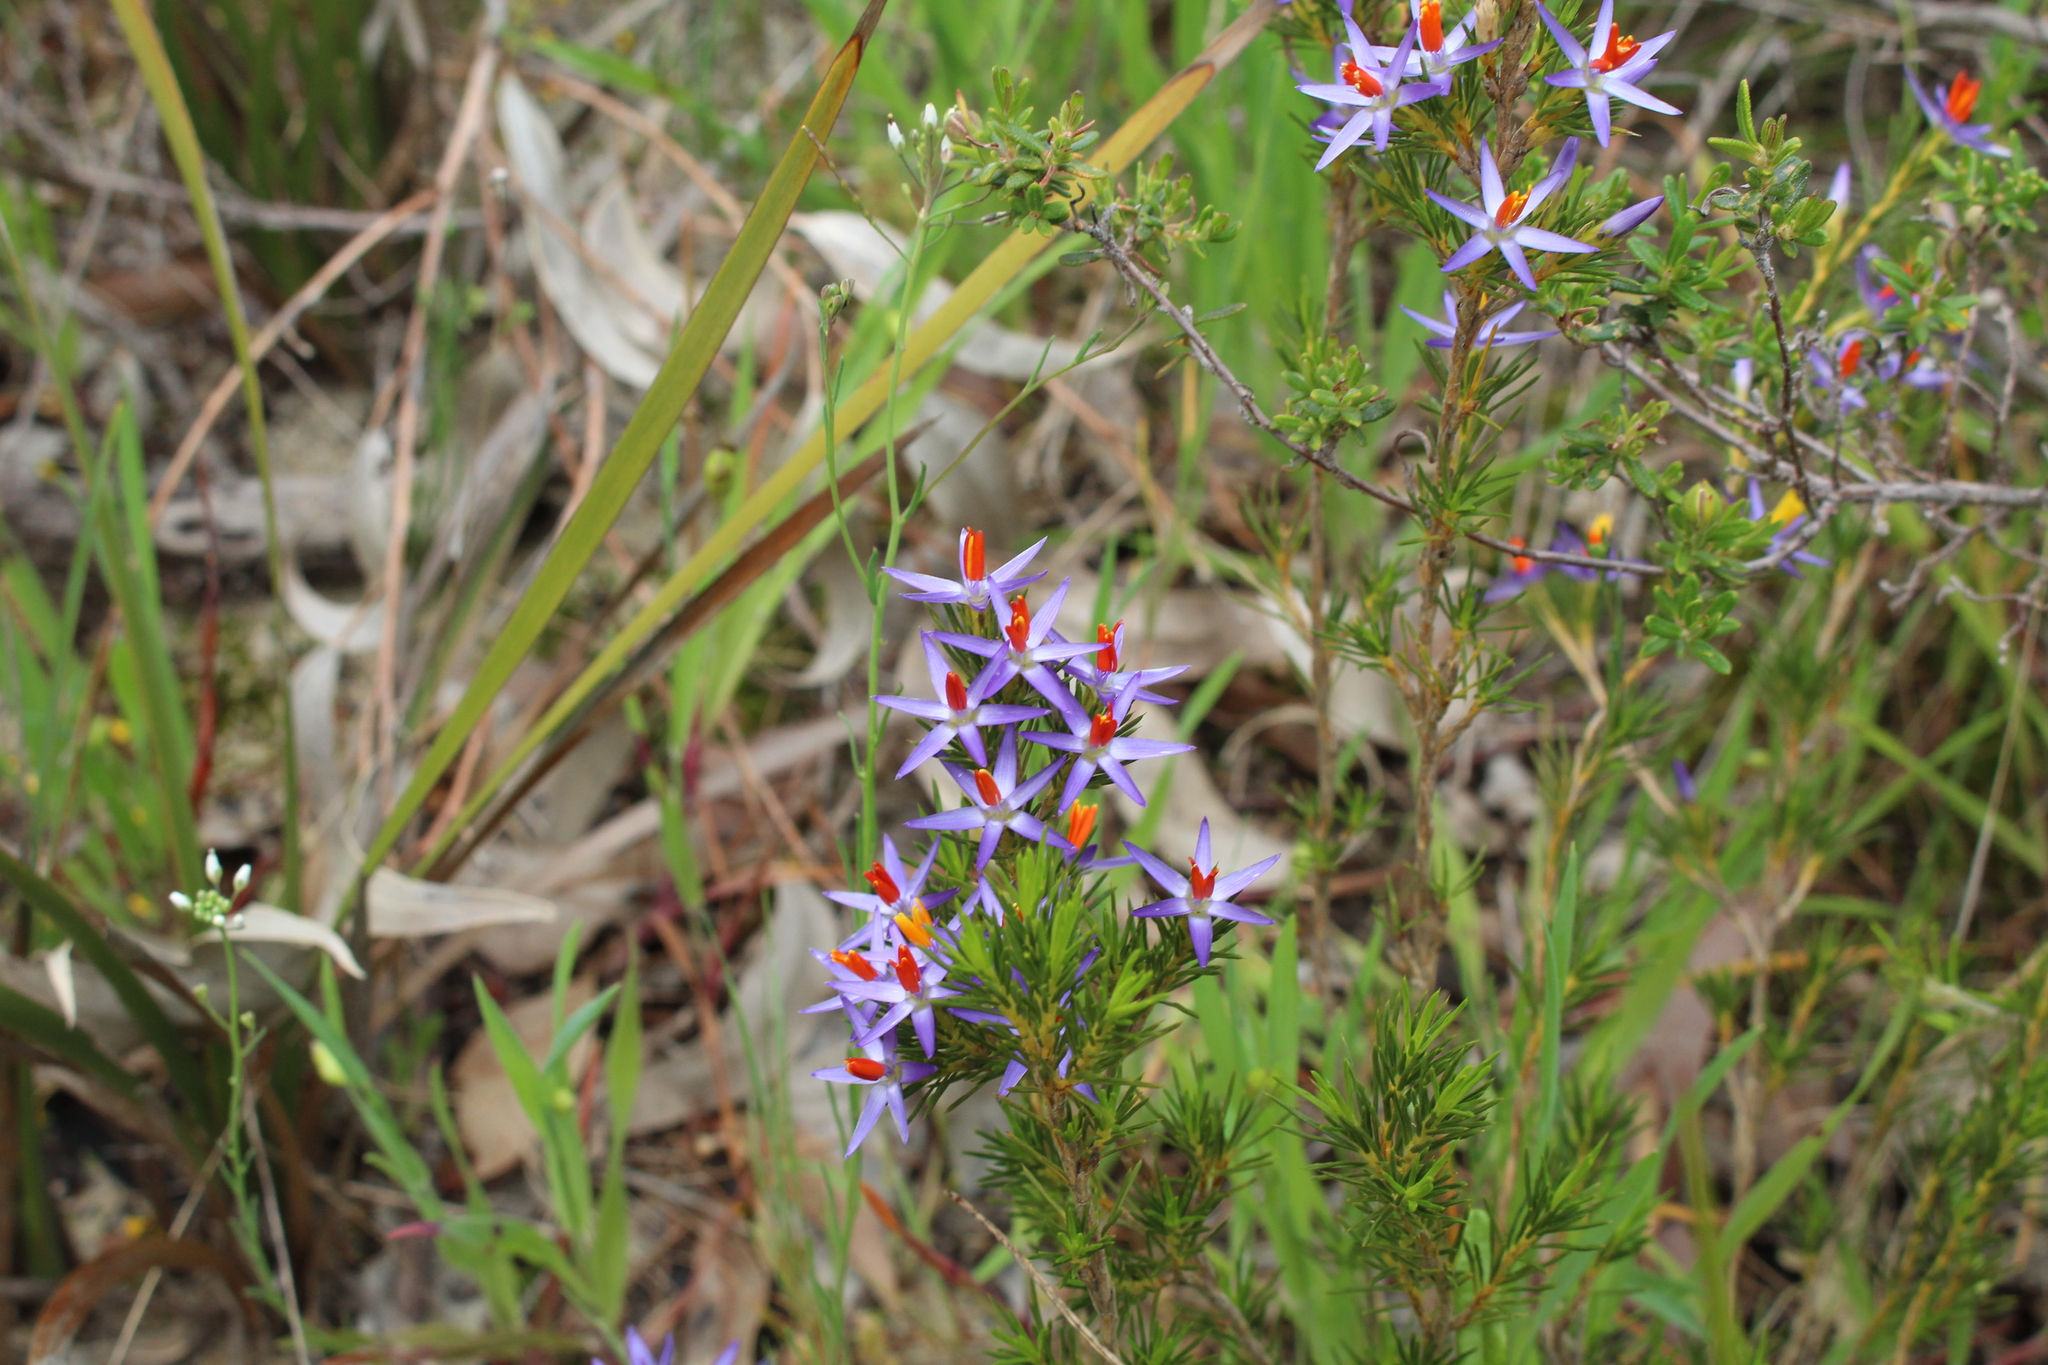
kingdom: Plantae
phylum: Tracheophyta
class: Liliopsida
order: Arecales
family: Dasypogonaceae
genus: Calectasia
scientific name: Calectasia narragara
